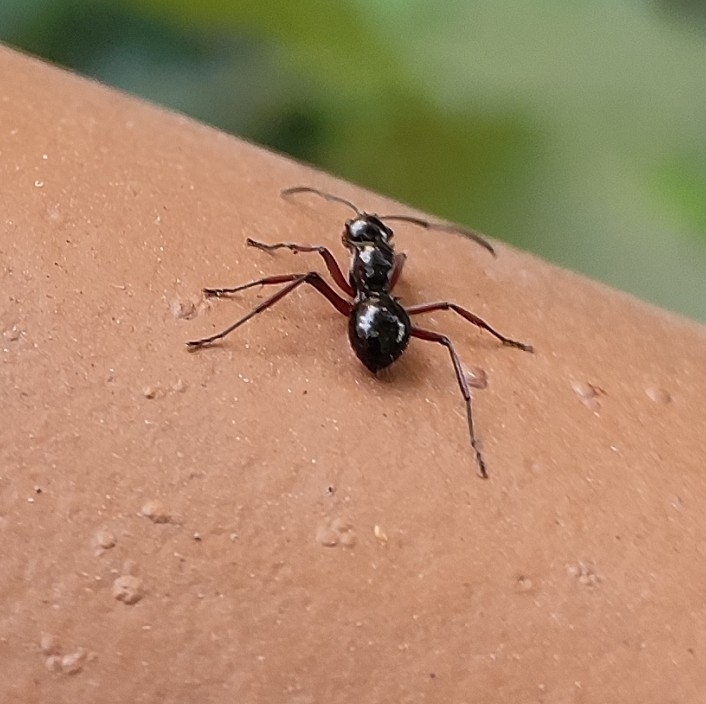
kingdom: Animalia
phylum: Arthropoda
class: Insecta
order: Hymenoptera
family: Formicidae
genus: Polyrhachis
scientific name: Polyrhachis aculeata
